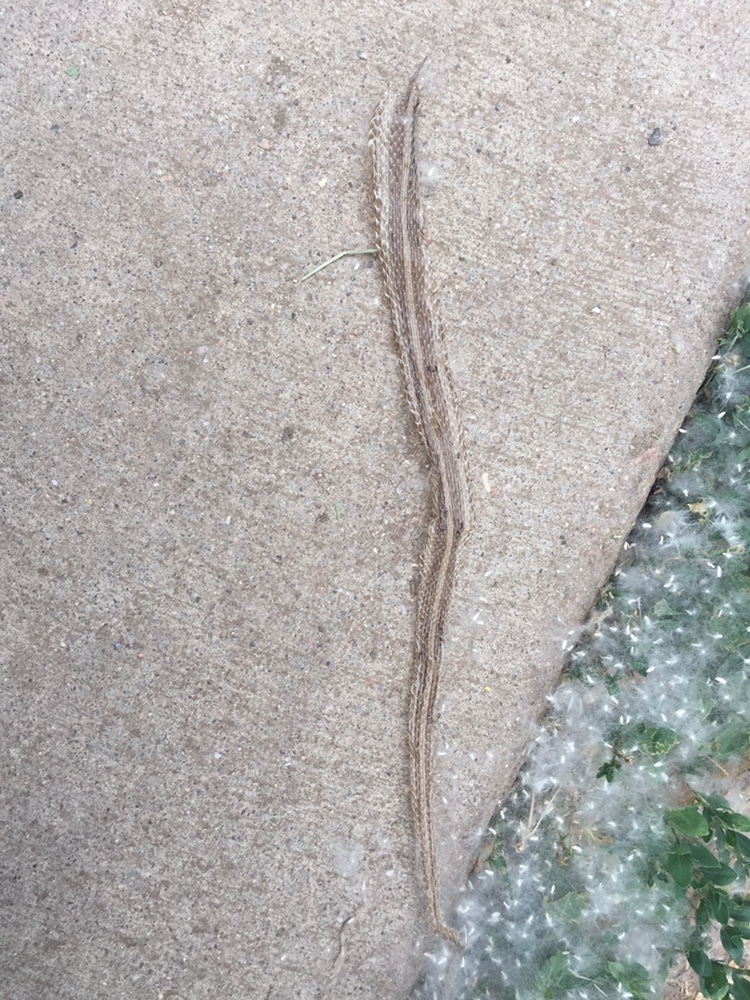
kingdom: Animalia
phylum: Chordata
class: Squamata
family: Colubridae
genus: Thamnophis
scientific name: Thamnophis sirtalis
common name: Common garter snake
